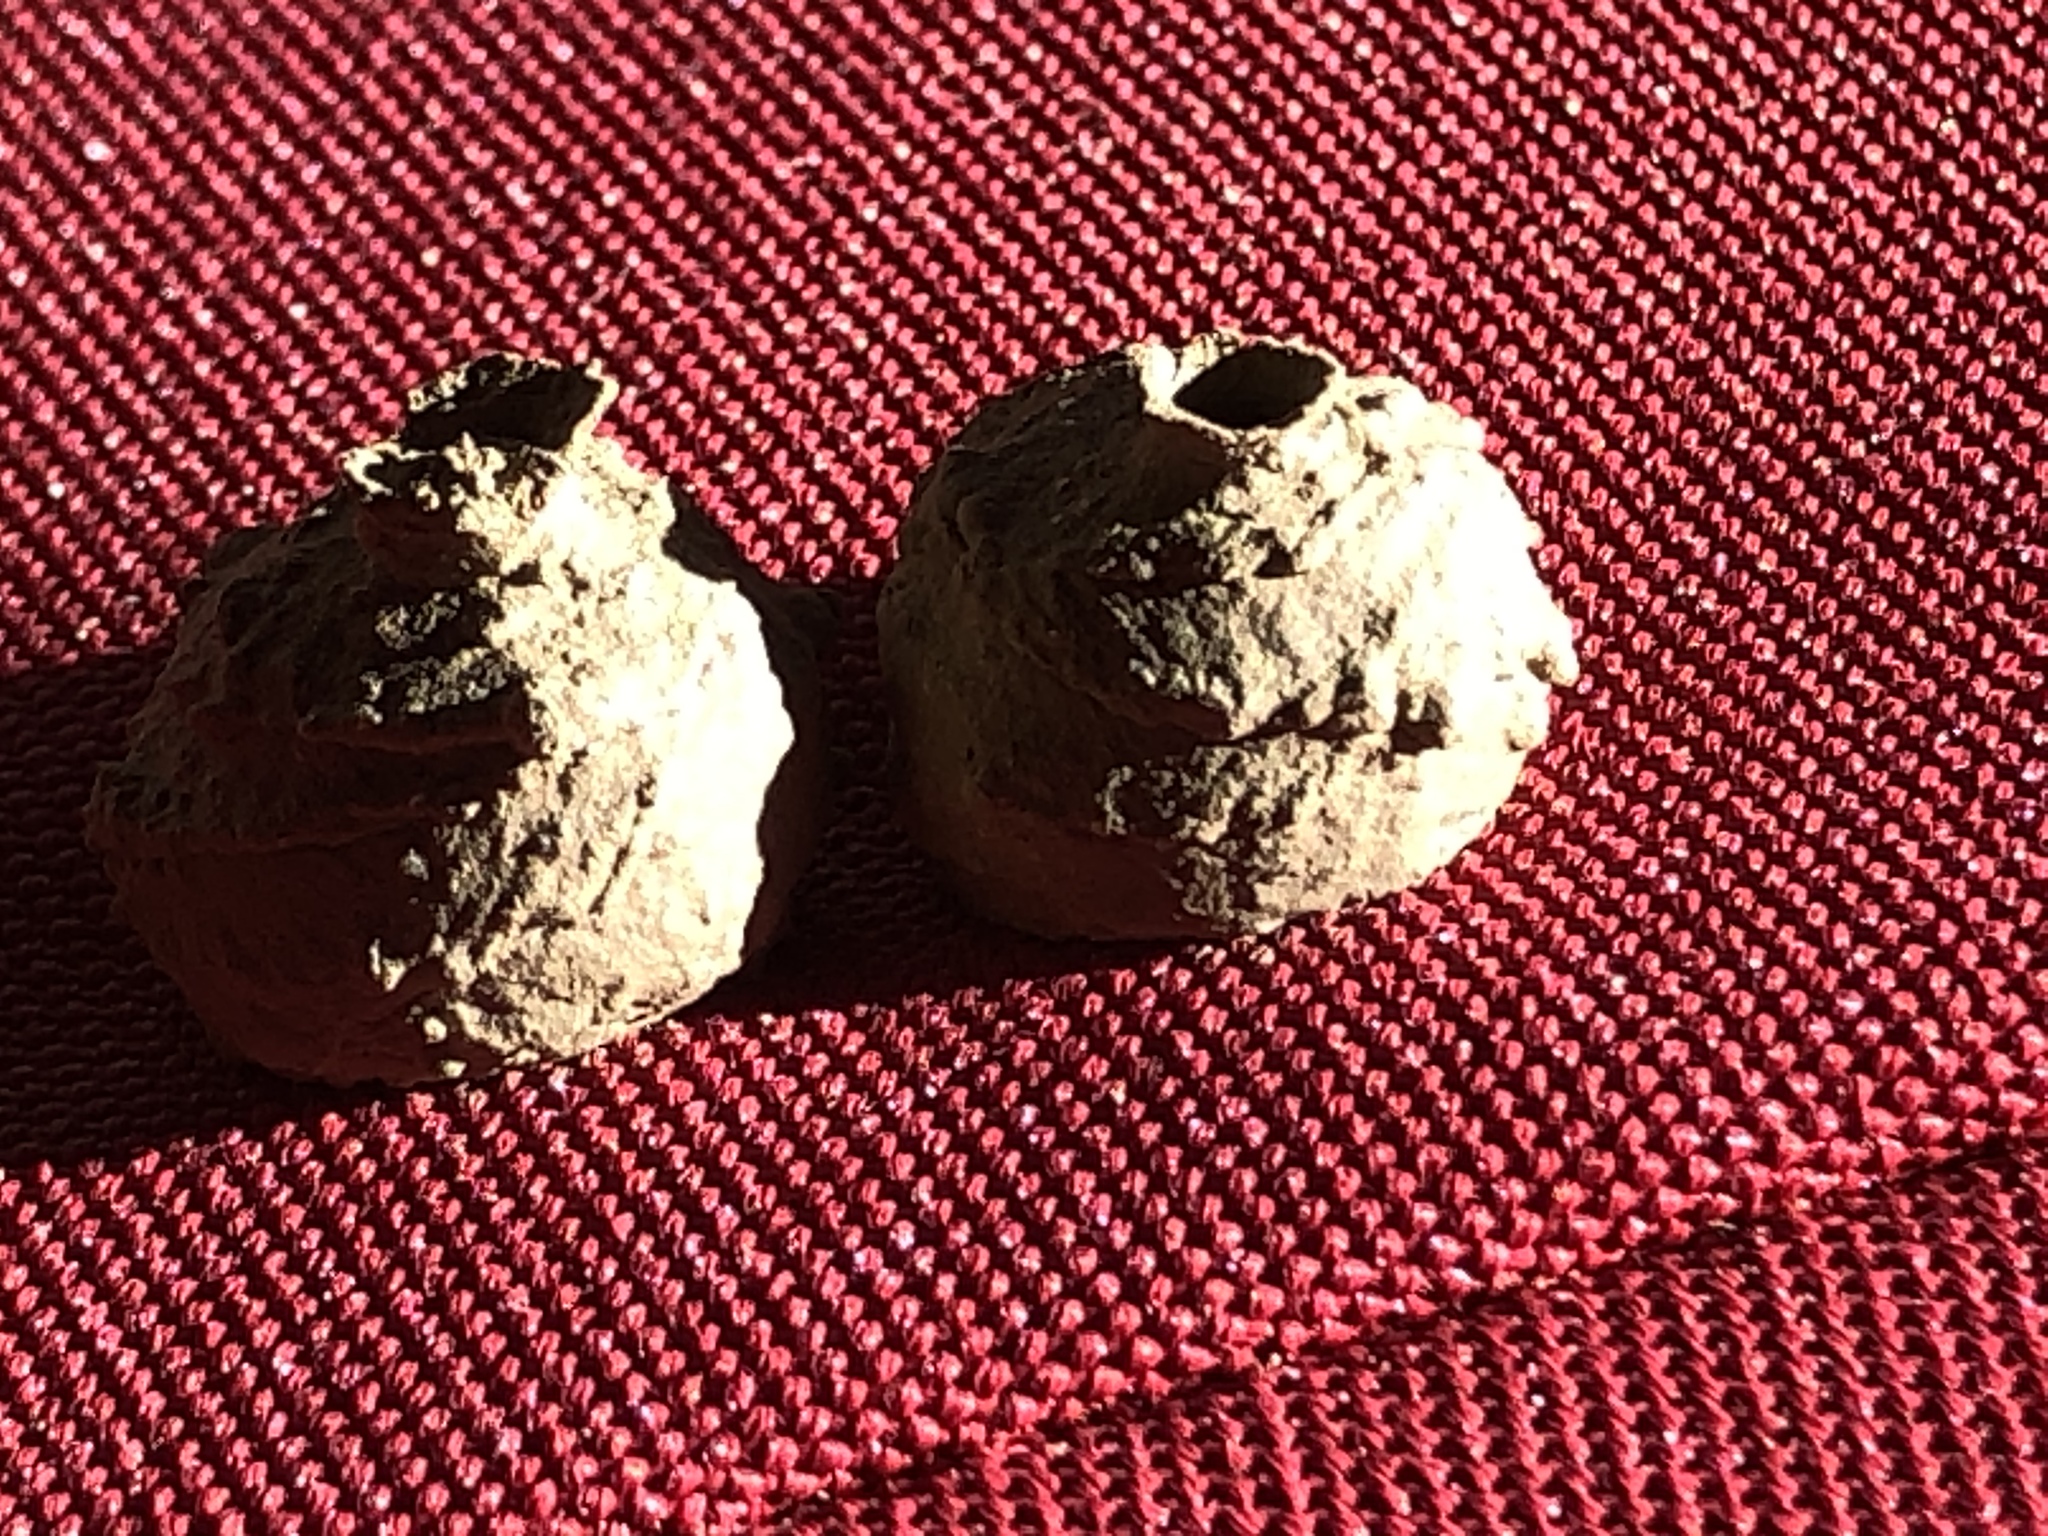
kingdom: Animalia
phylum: Arthropoda
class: Insecta
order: Hymenoptera
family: Vespidae
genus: Eumenes
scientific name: Eumenes
